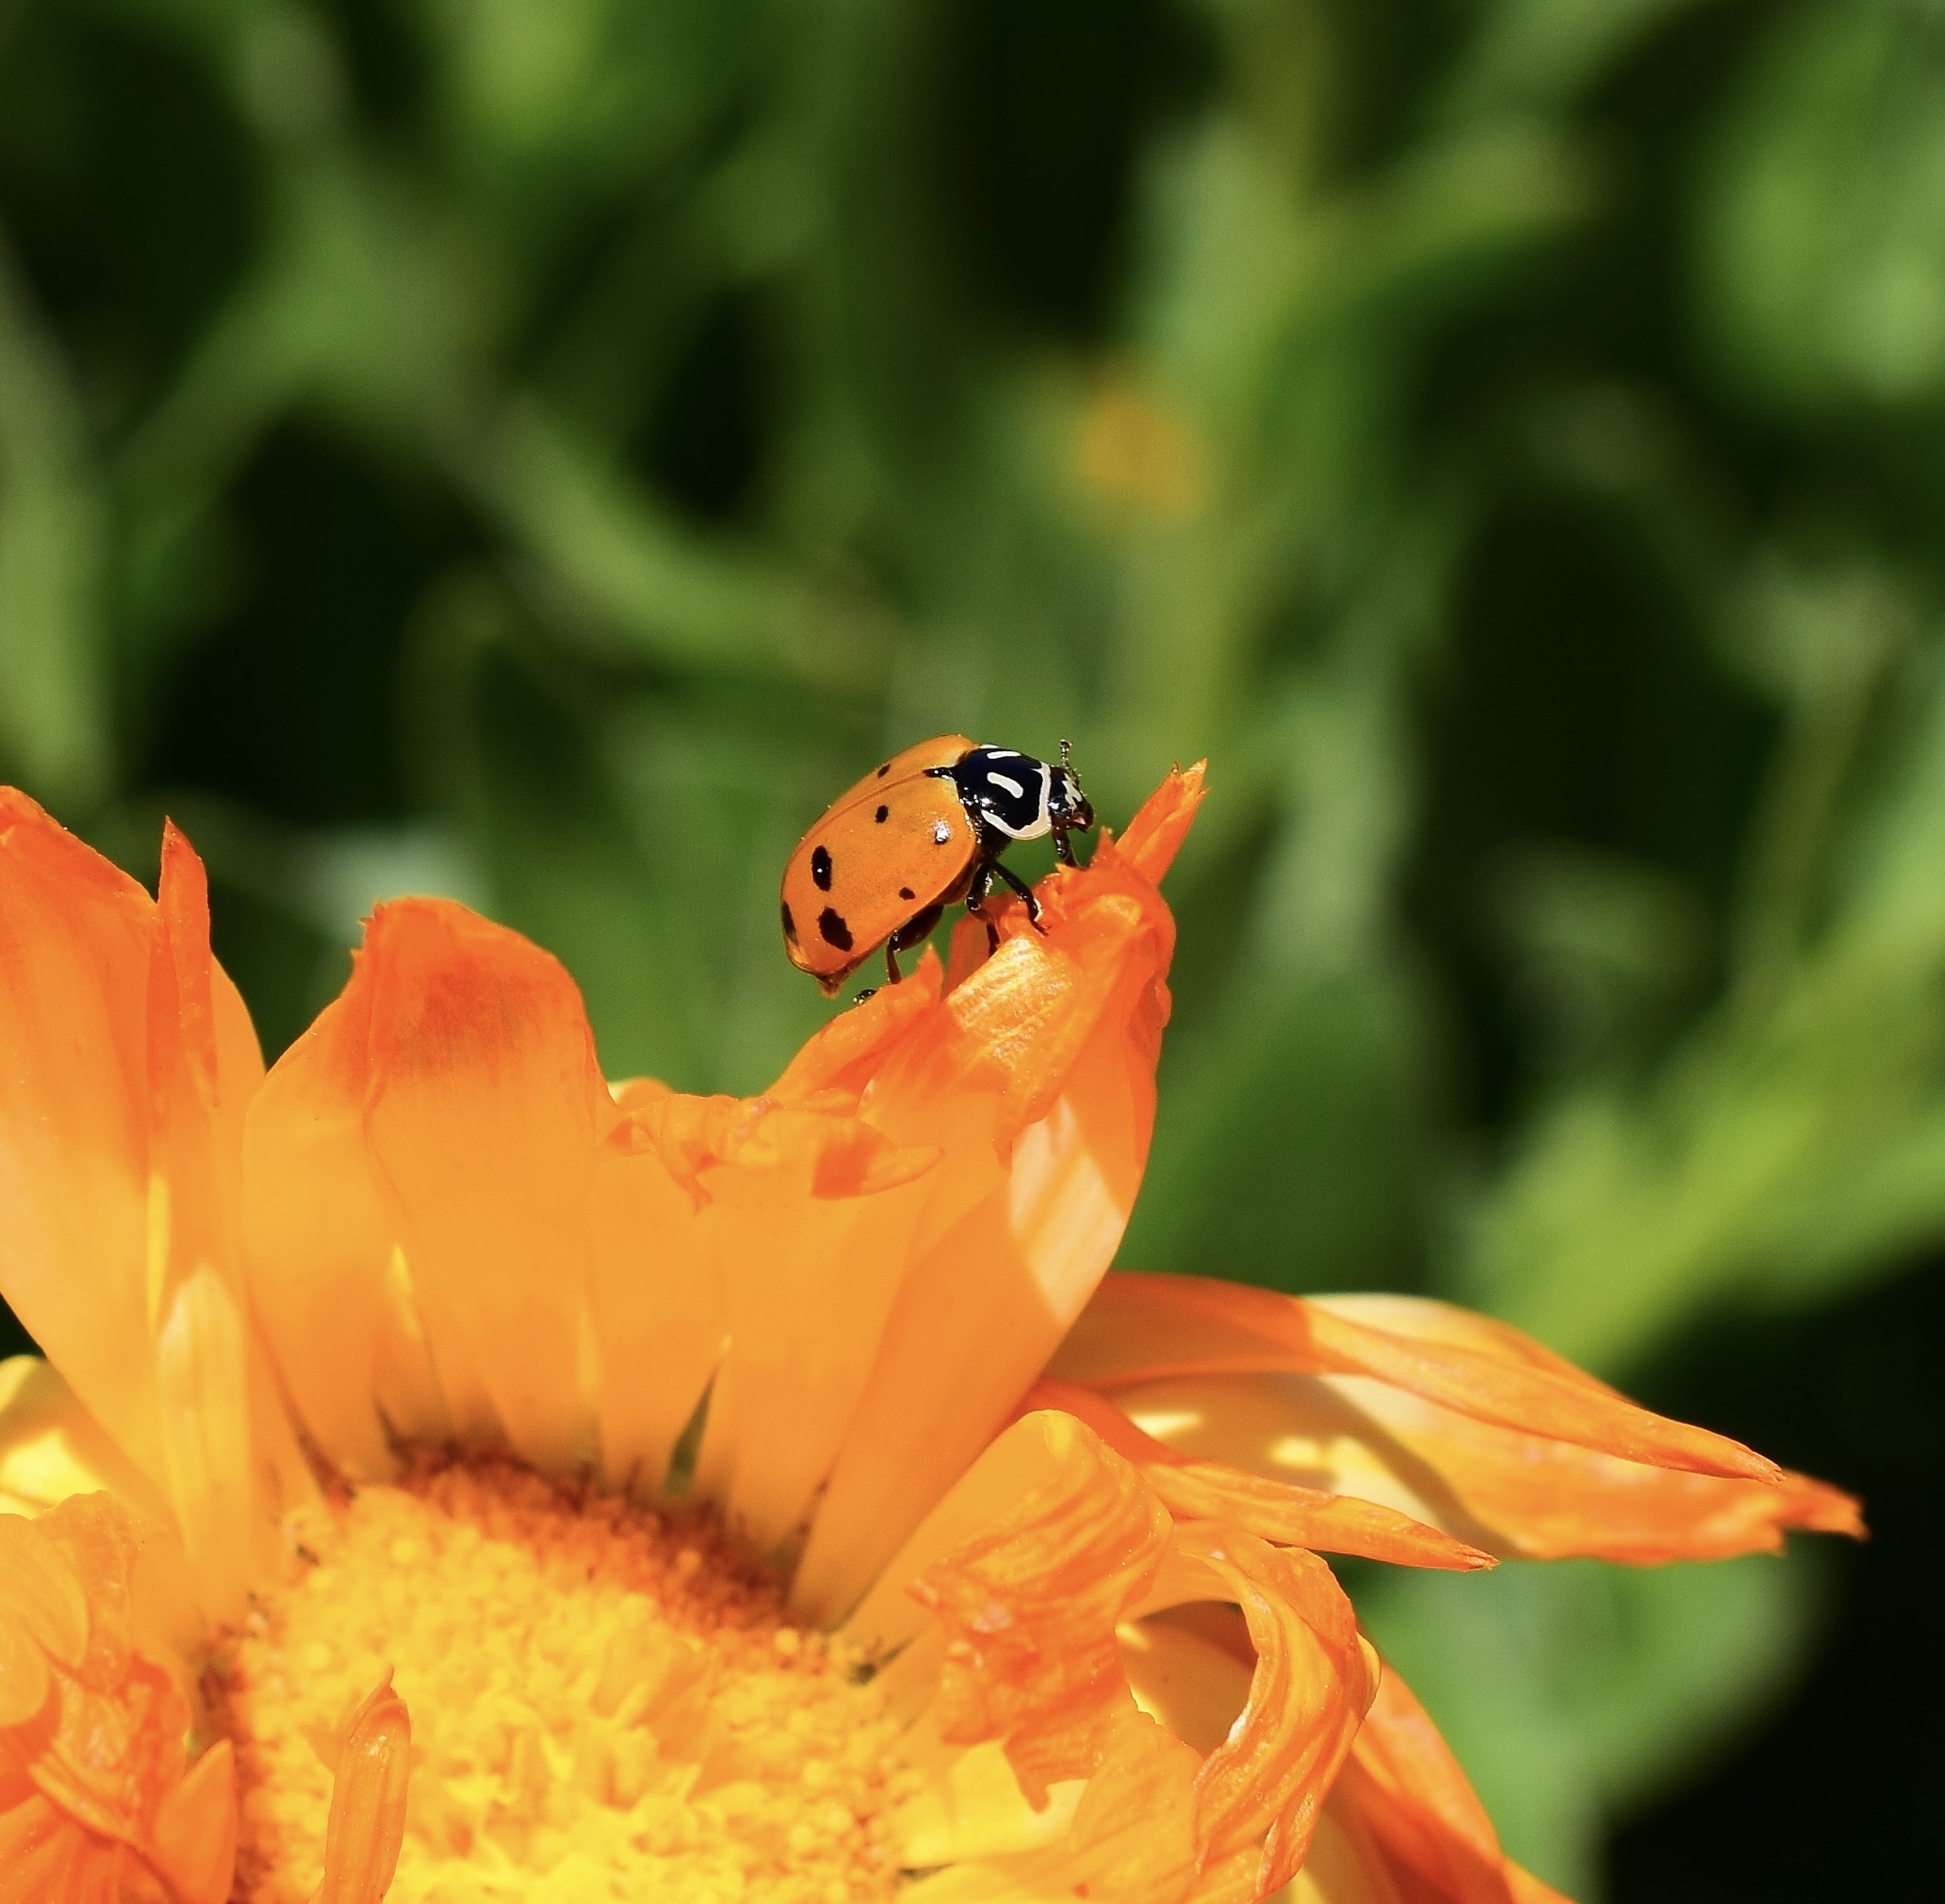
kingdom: Animalia
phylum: Arthropoda
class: Insecta
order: Coleoptera
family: Coccinellidae
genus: Hippodamia
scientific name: Hippodamia convergens
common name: Convergent lady beetle
